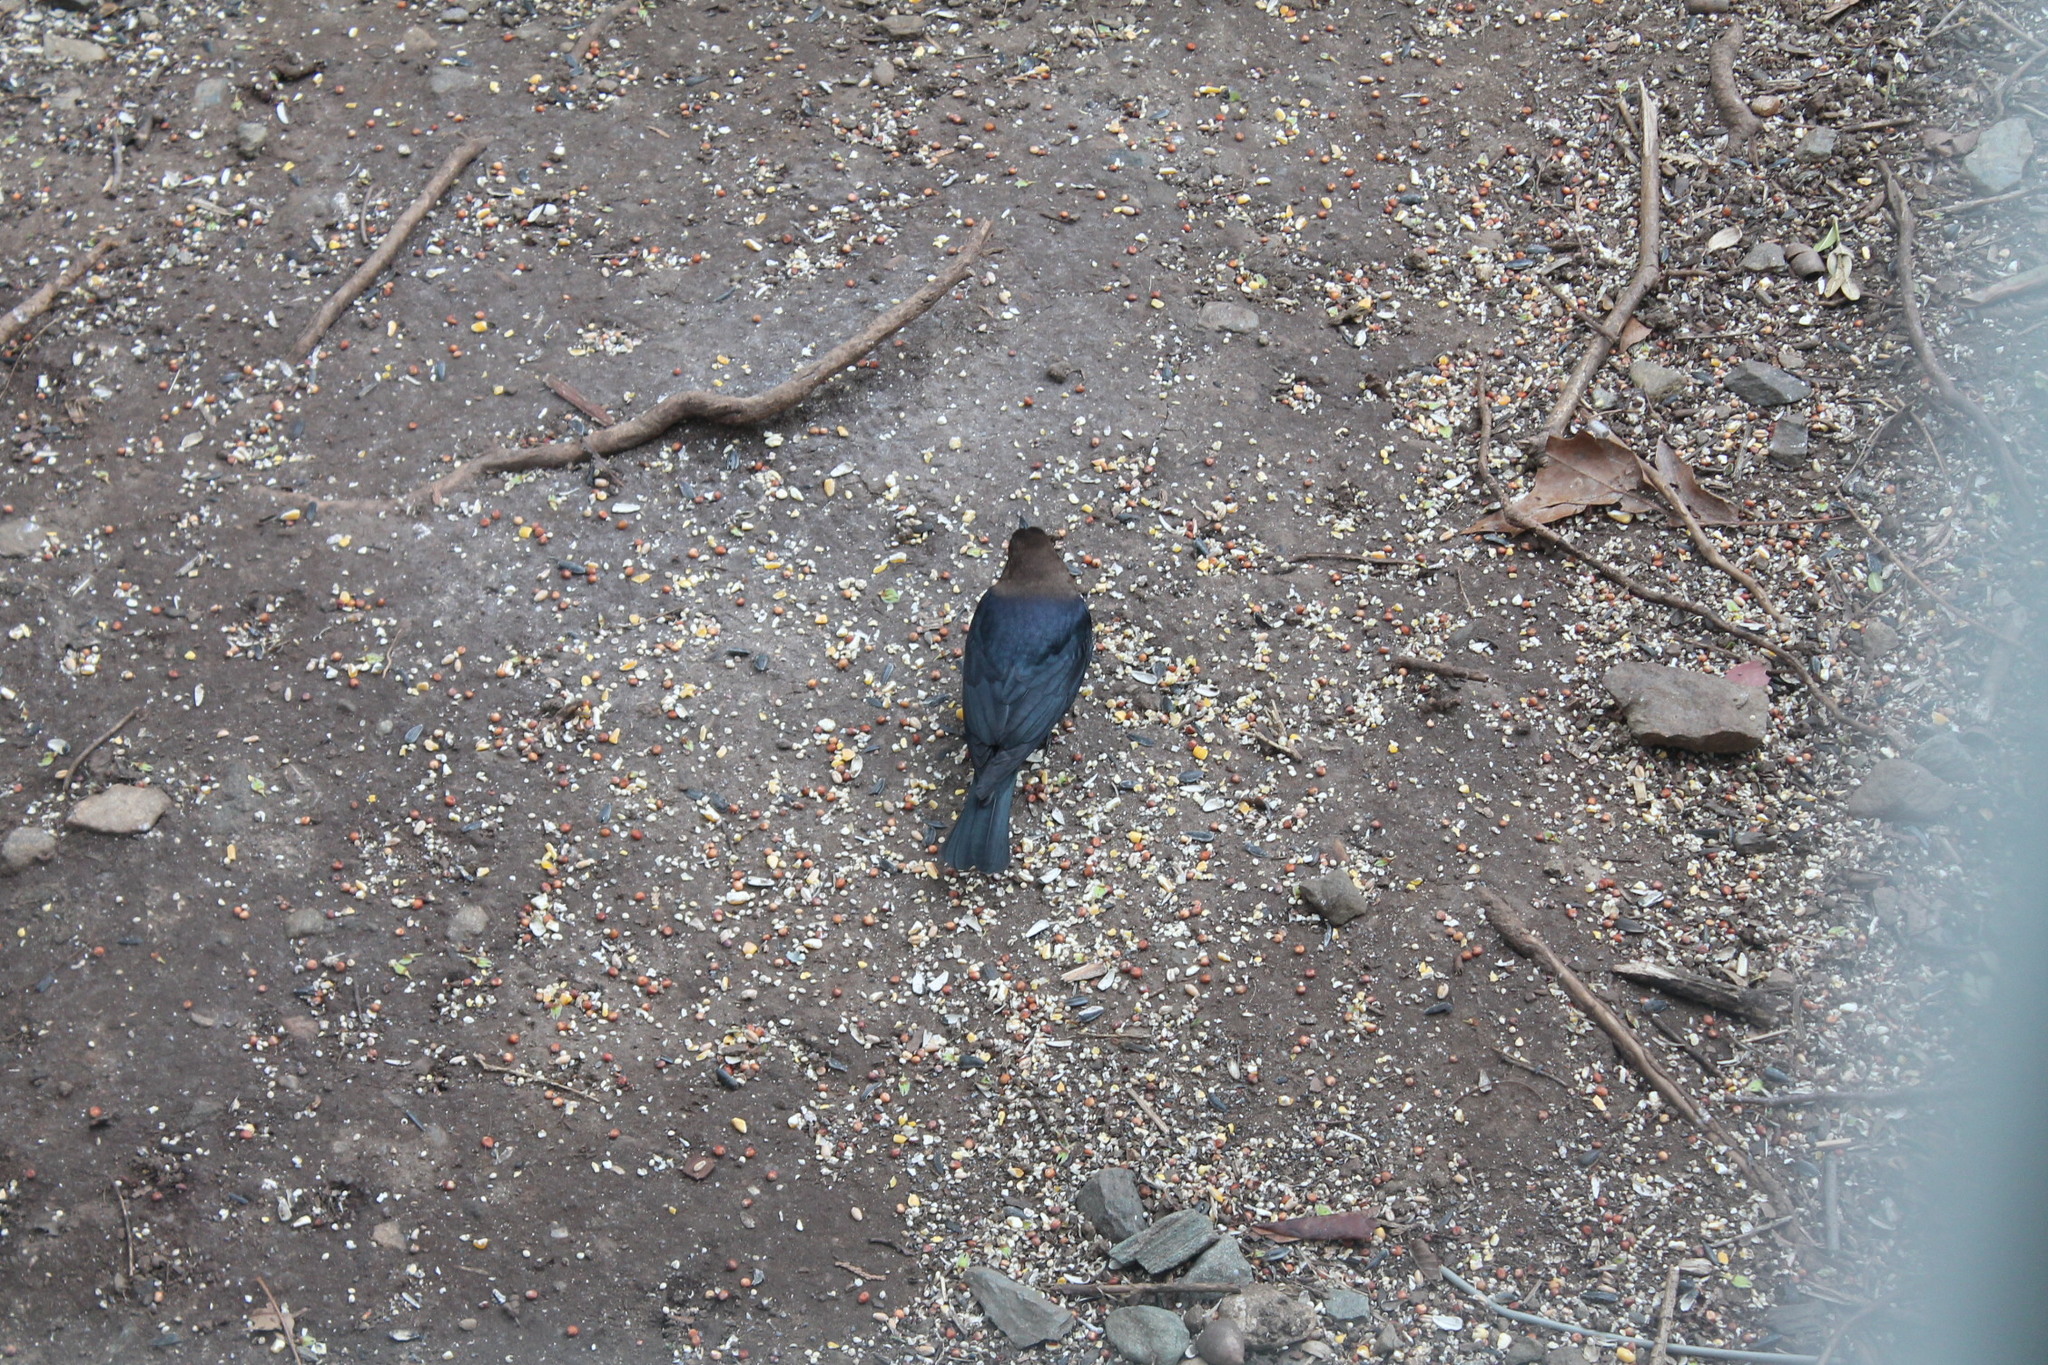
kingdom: Animalia
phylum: Chordata
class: Aves
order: Passeriformes
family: Icteridae
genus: Molothrus
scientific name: Molothrus ater
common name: Brown-headed cowbird
